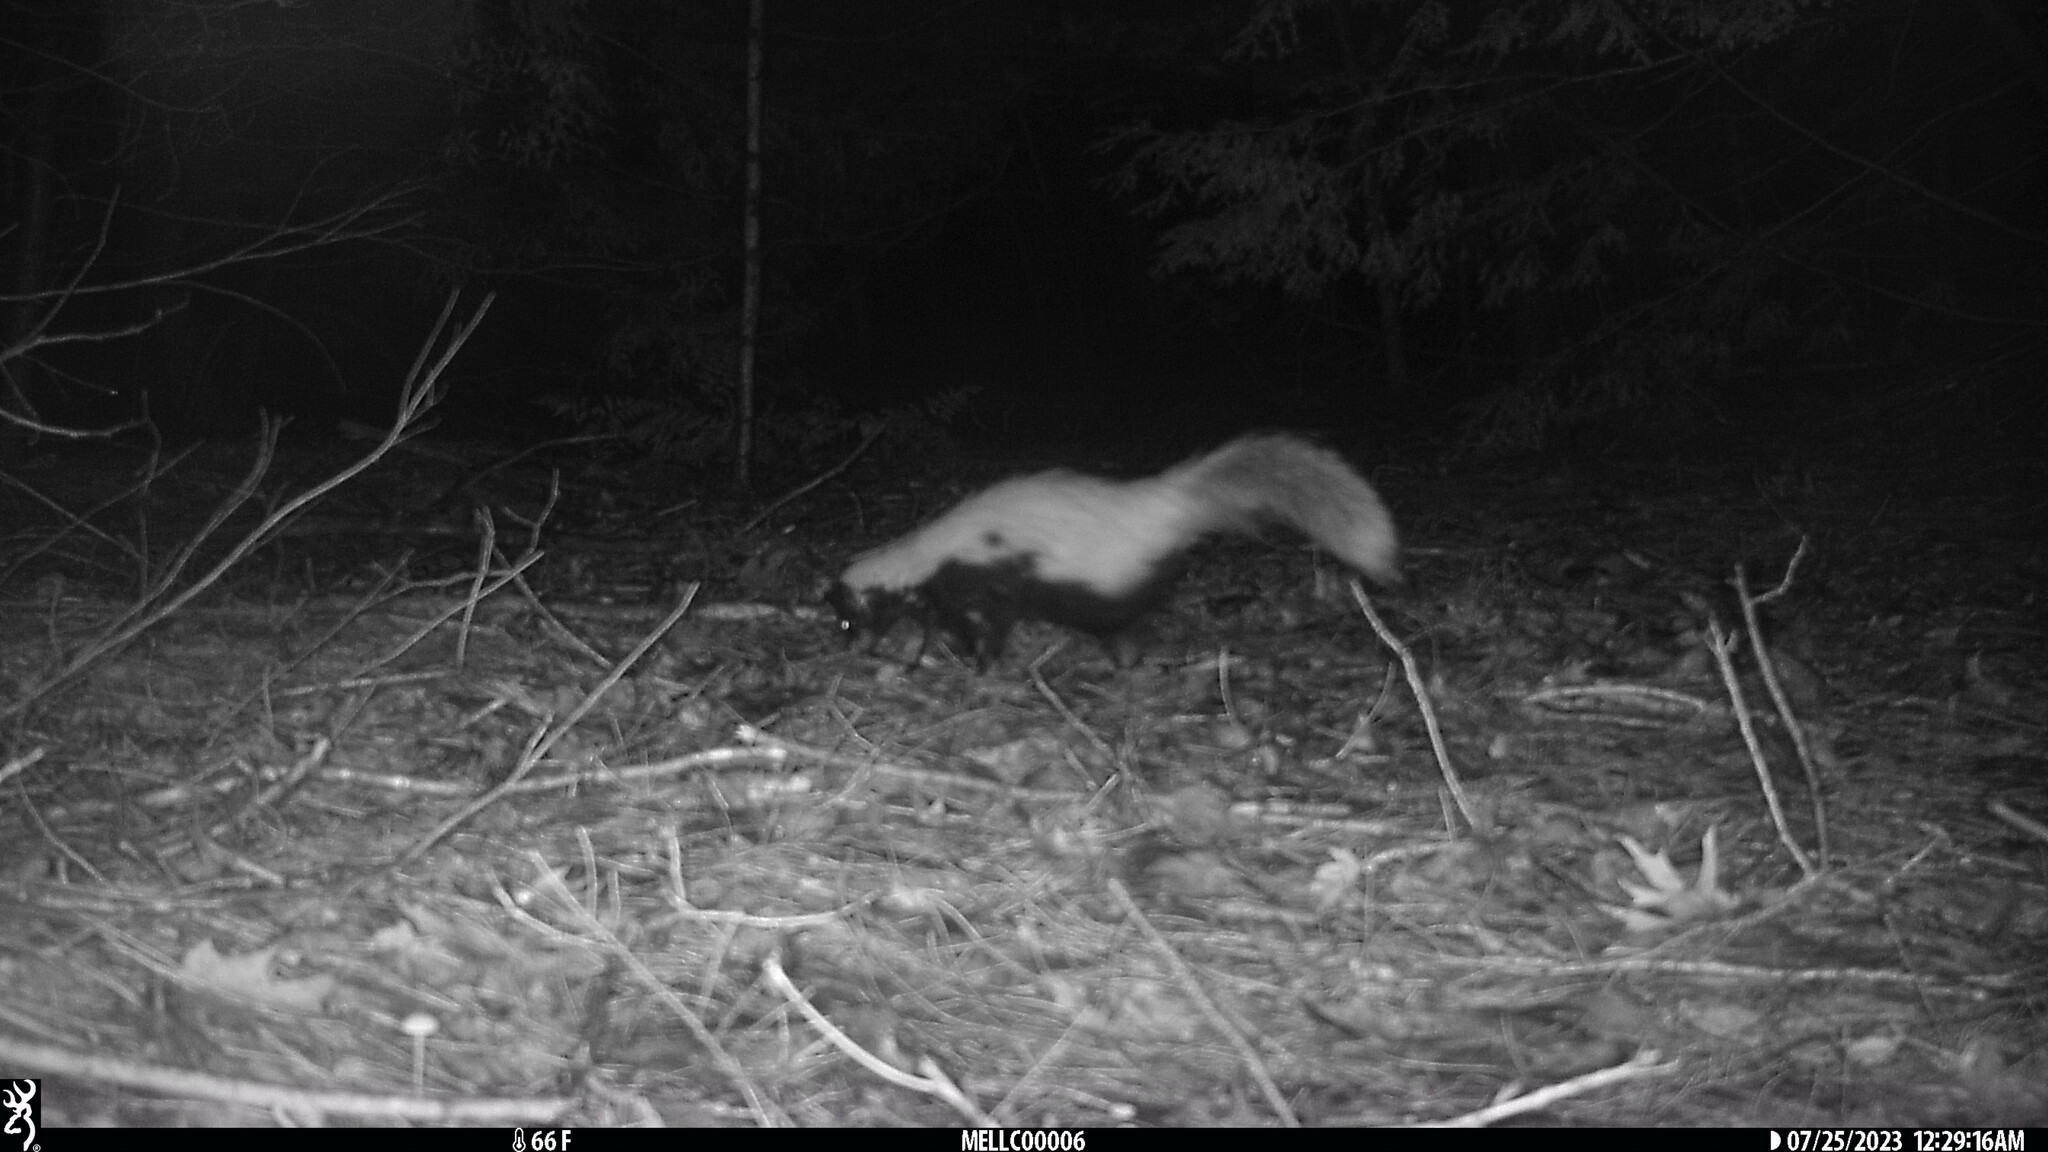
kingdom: Animalia
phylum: Chordata
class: Mammalia
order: Carnivora
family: Mephitidae
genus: Mephitis
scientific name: Mephitis mephitis
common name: Striped skunk
